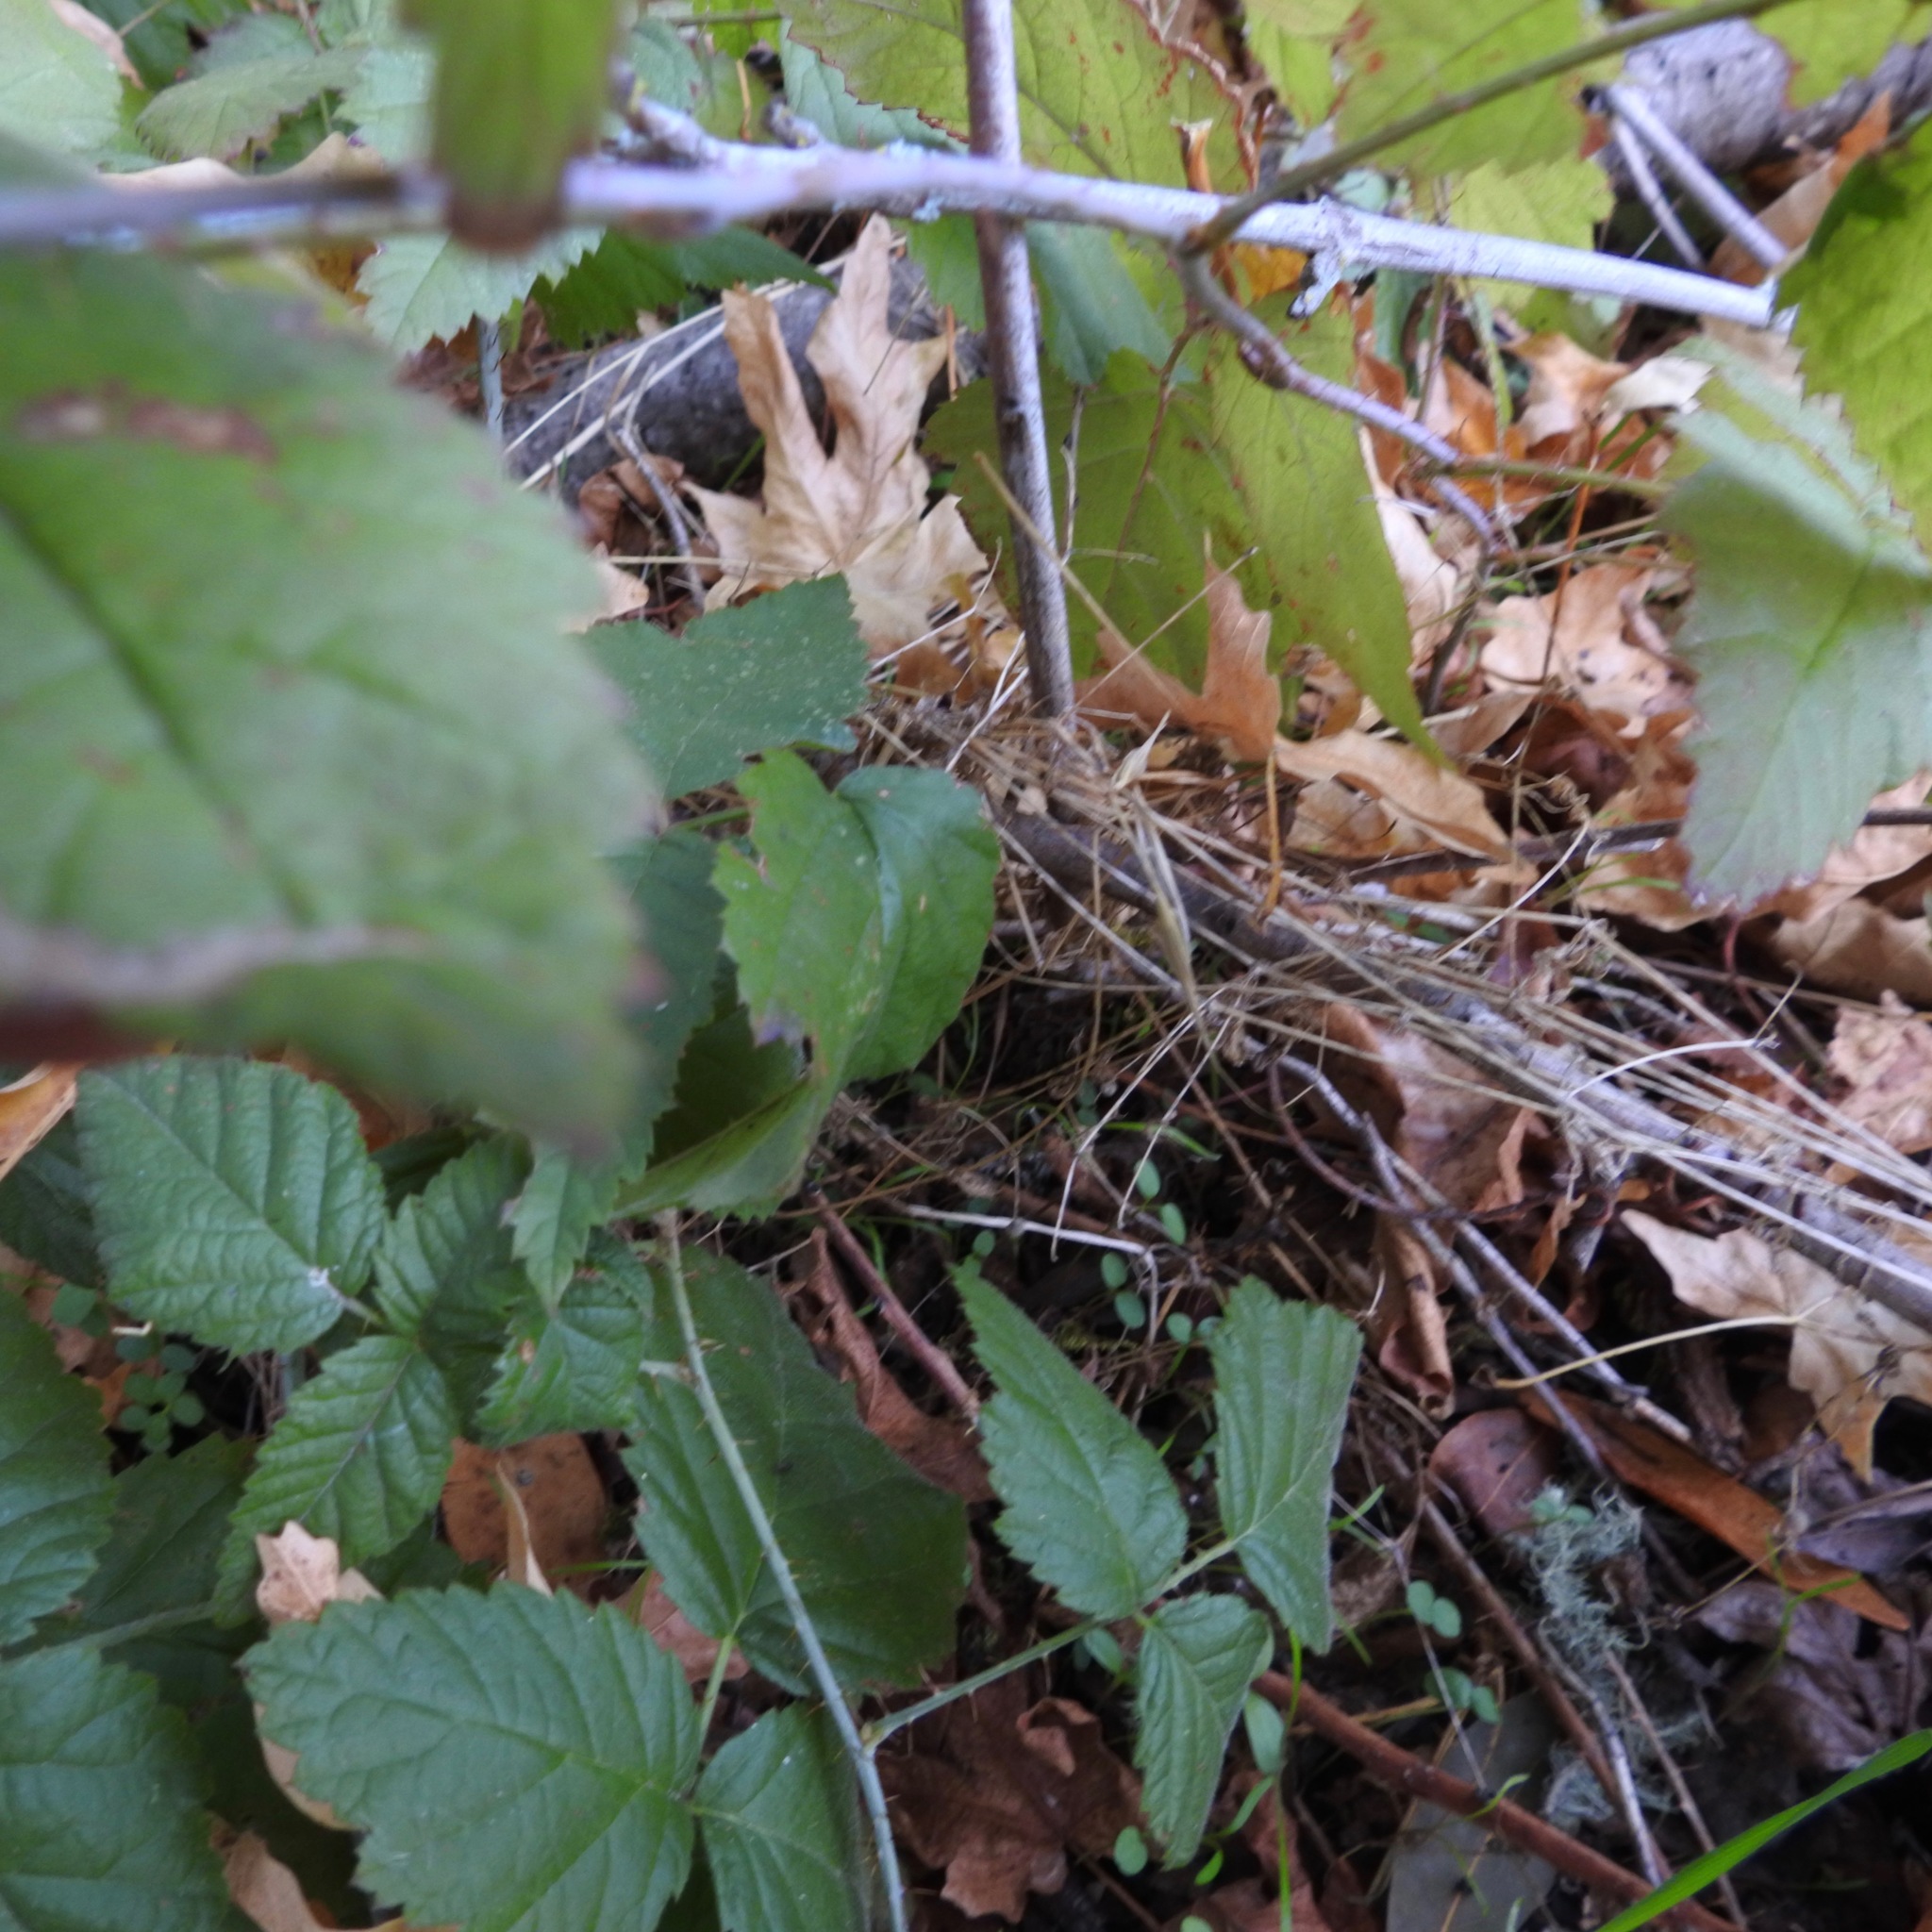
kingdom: Plantae
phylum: Tracheophyta
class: Magnoliopsida
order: Rosales
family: Rosaceae
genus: Rubus
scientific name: Rubus ursinus
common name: Pacific blackberry
